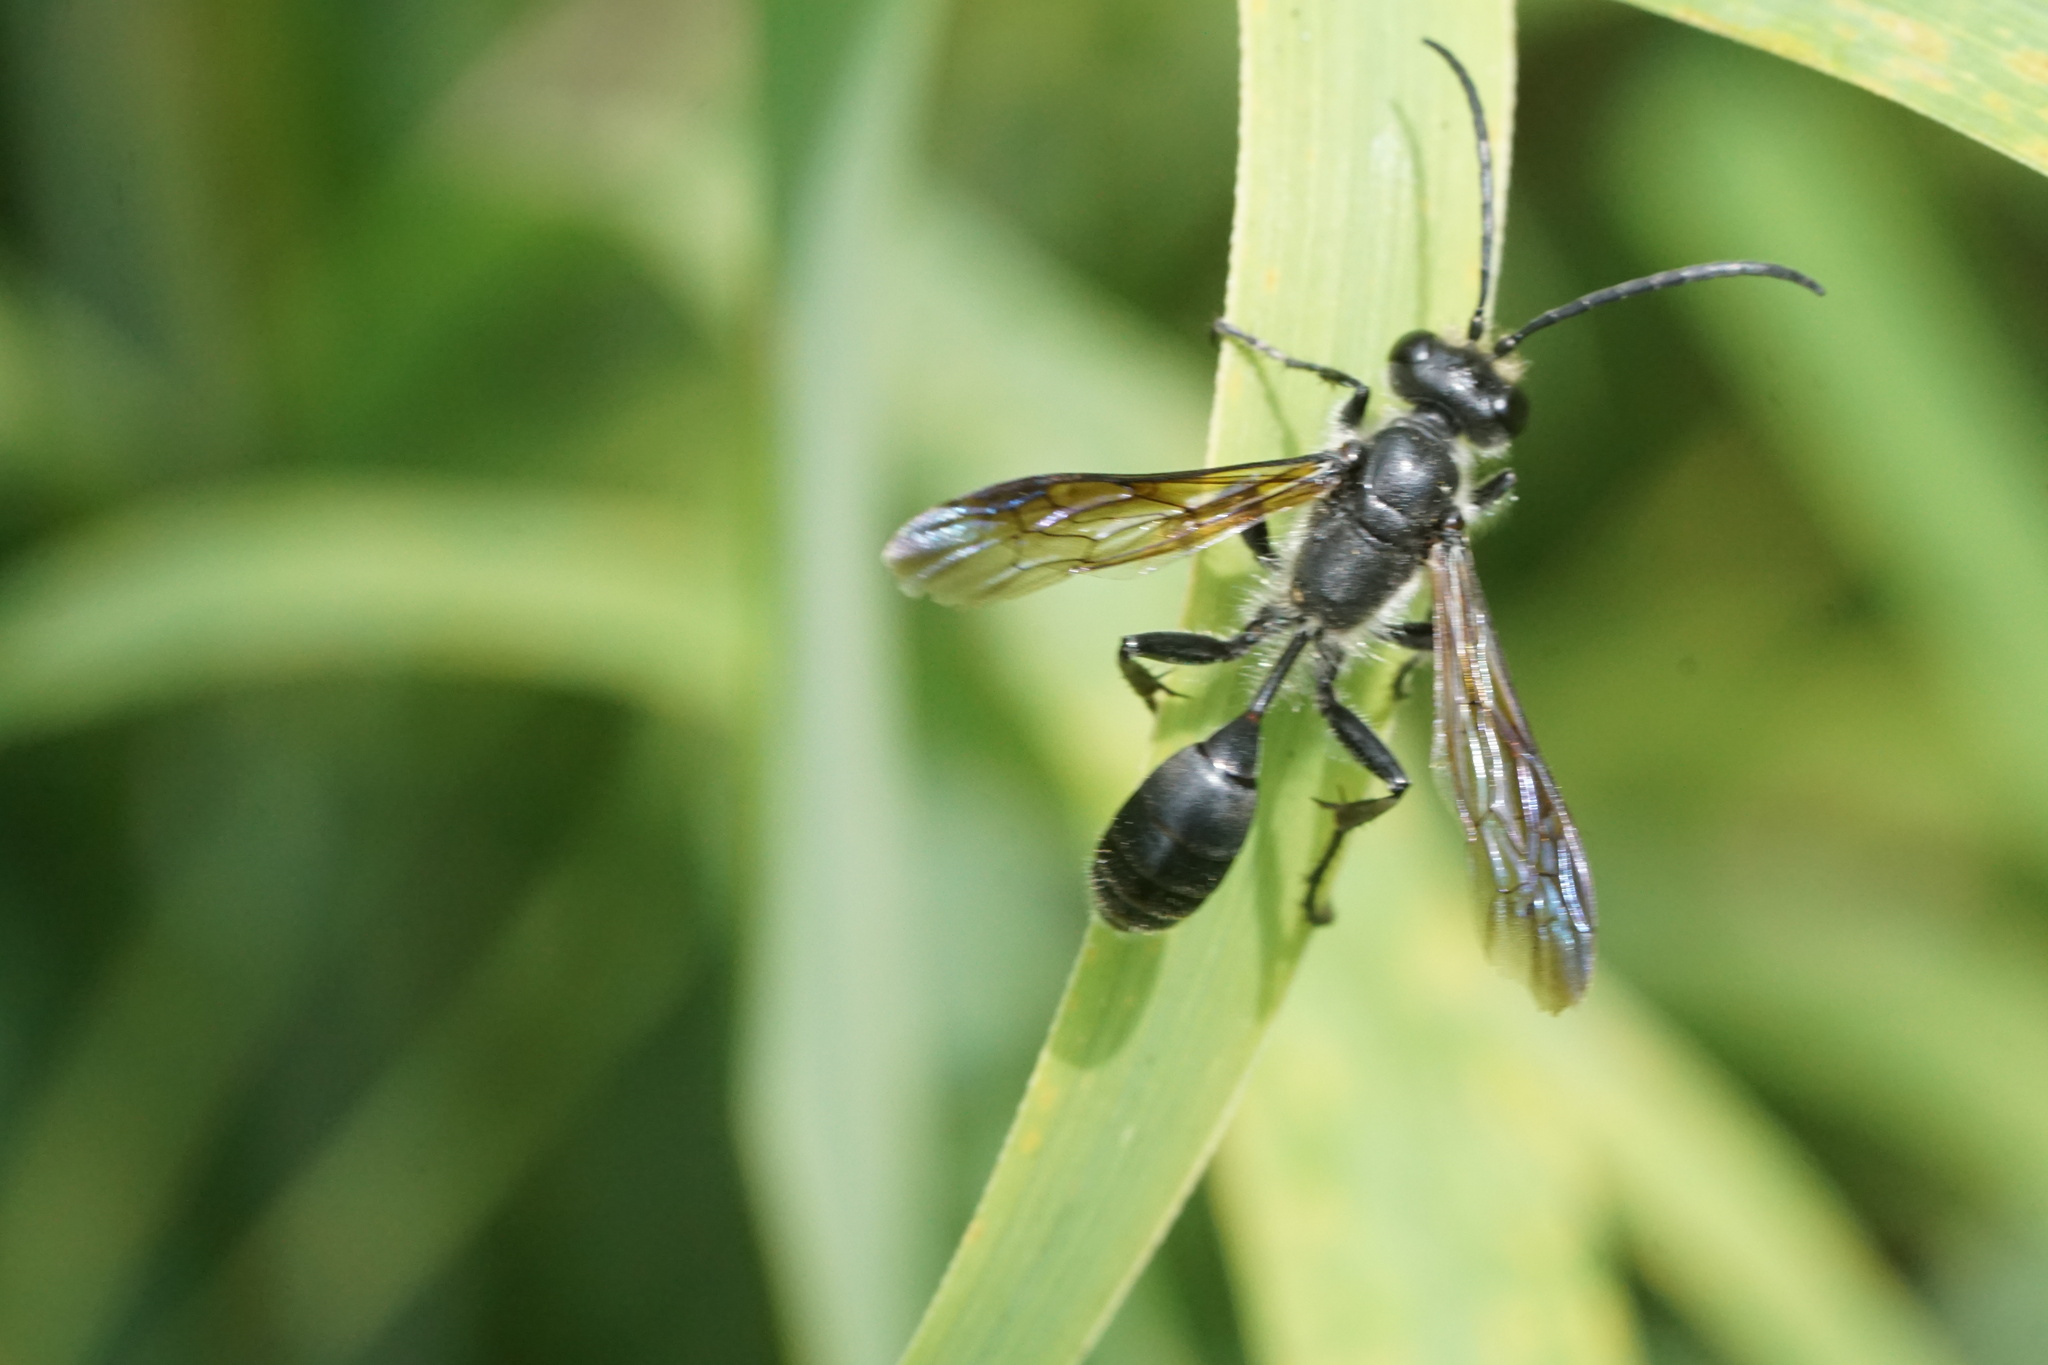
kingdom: Animalia
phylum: Arthropoda
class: Insecta
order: Hymenoptera
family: Sphecidae
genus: Isodontia
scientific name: Isodontia mexicana
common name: Mud dauber
